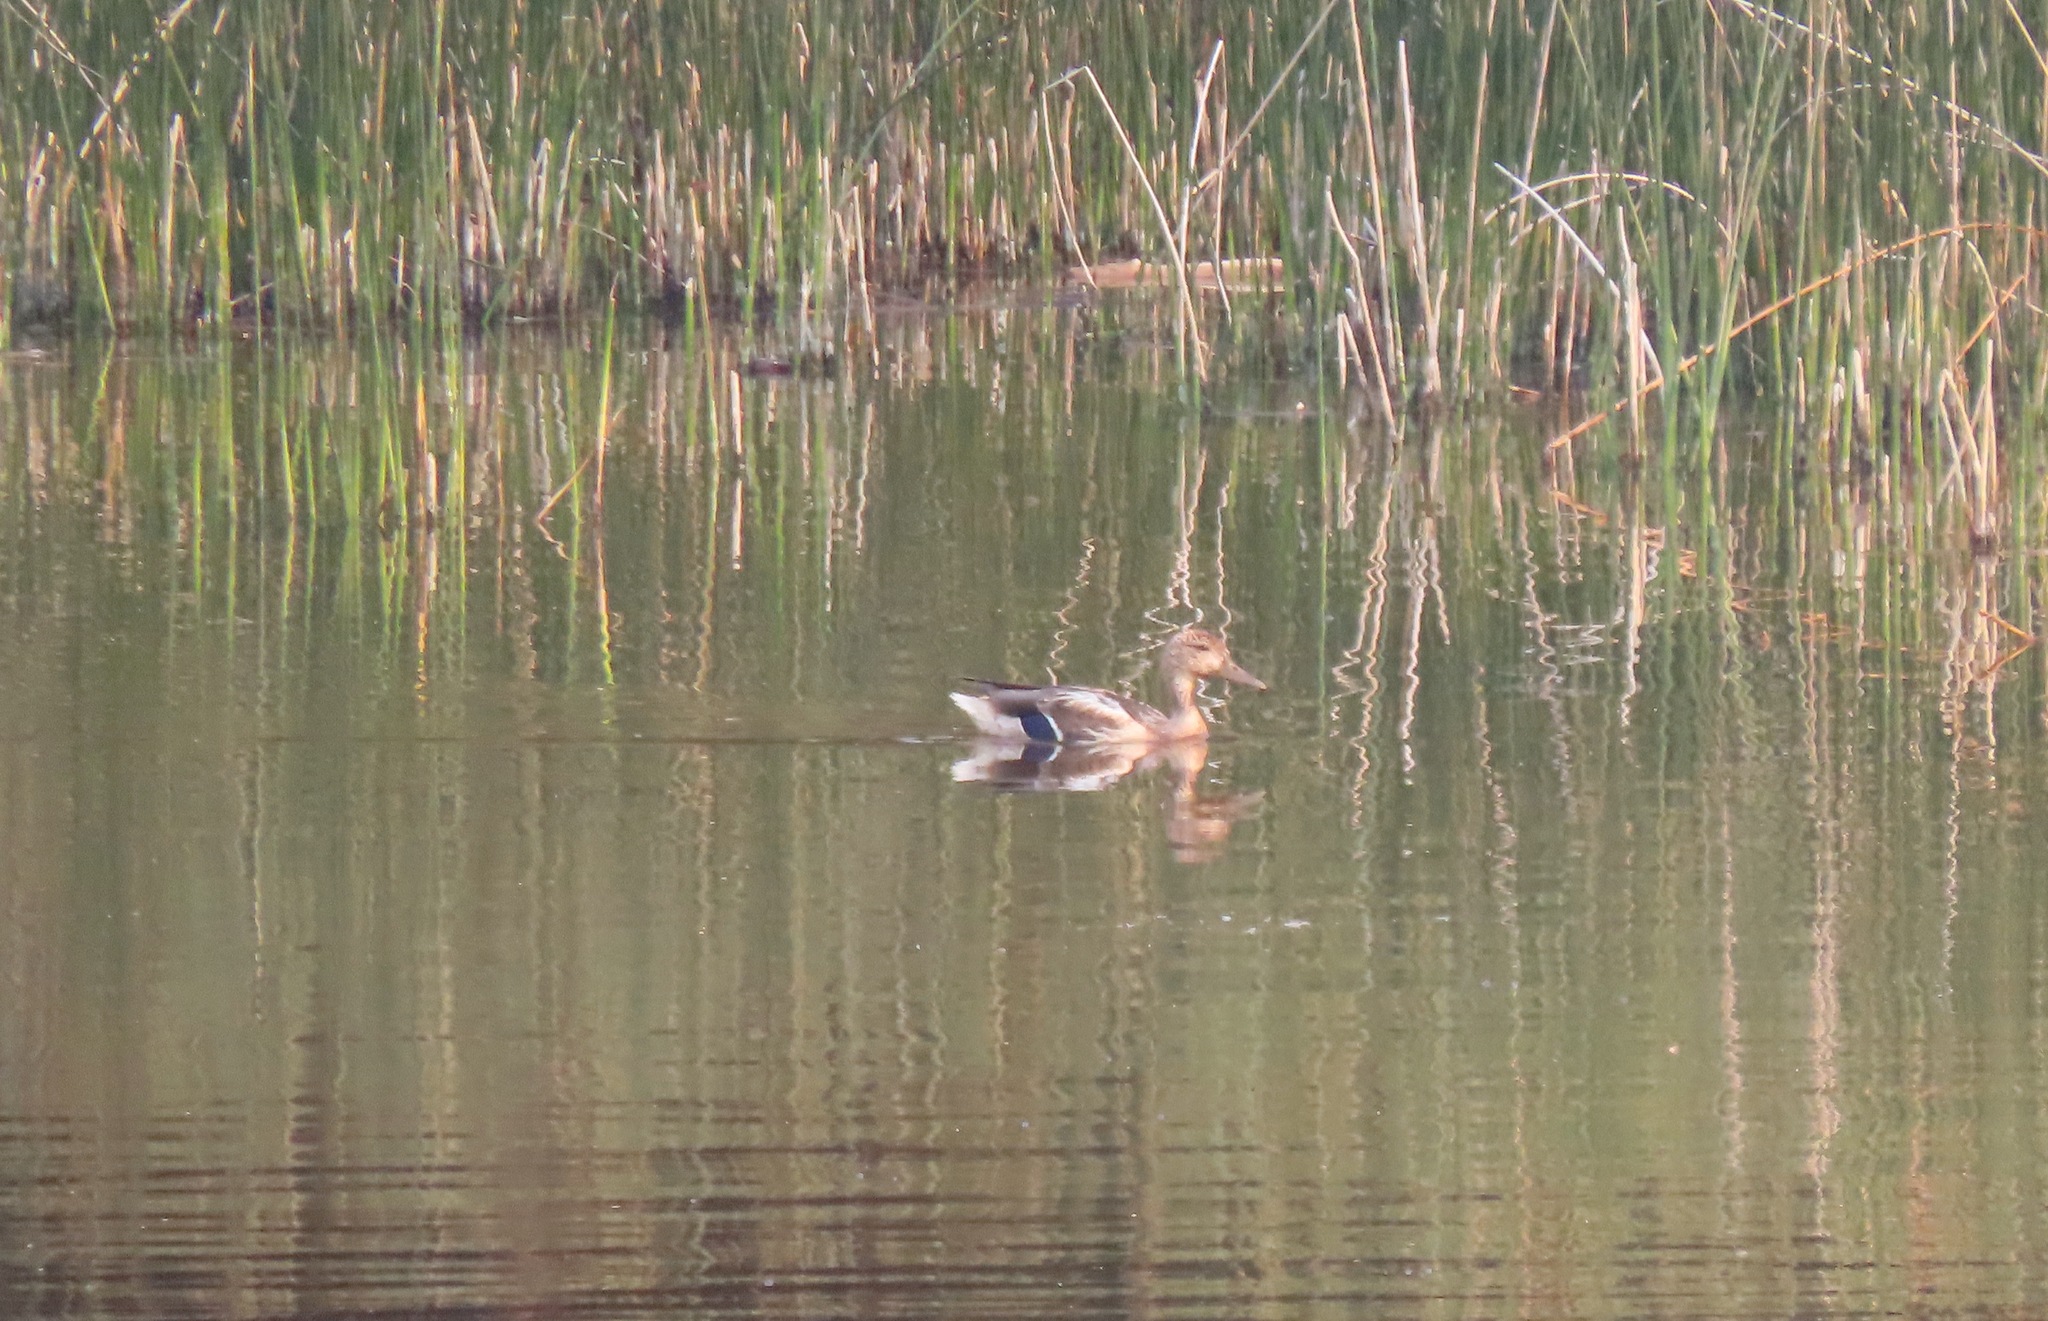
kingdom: Animalia
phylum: Chordata
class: Aves
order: Anseriformes
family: Anatidae
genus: Anas
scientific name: Anas platyrhynchos
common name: Mallard
